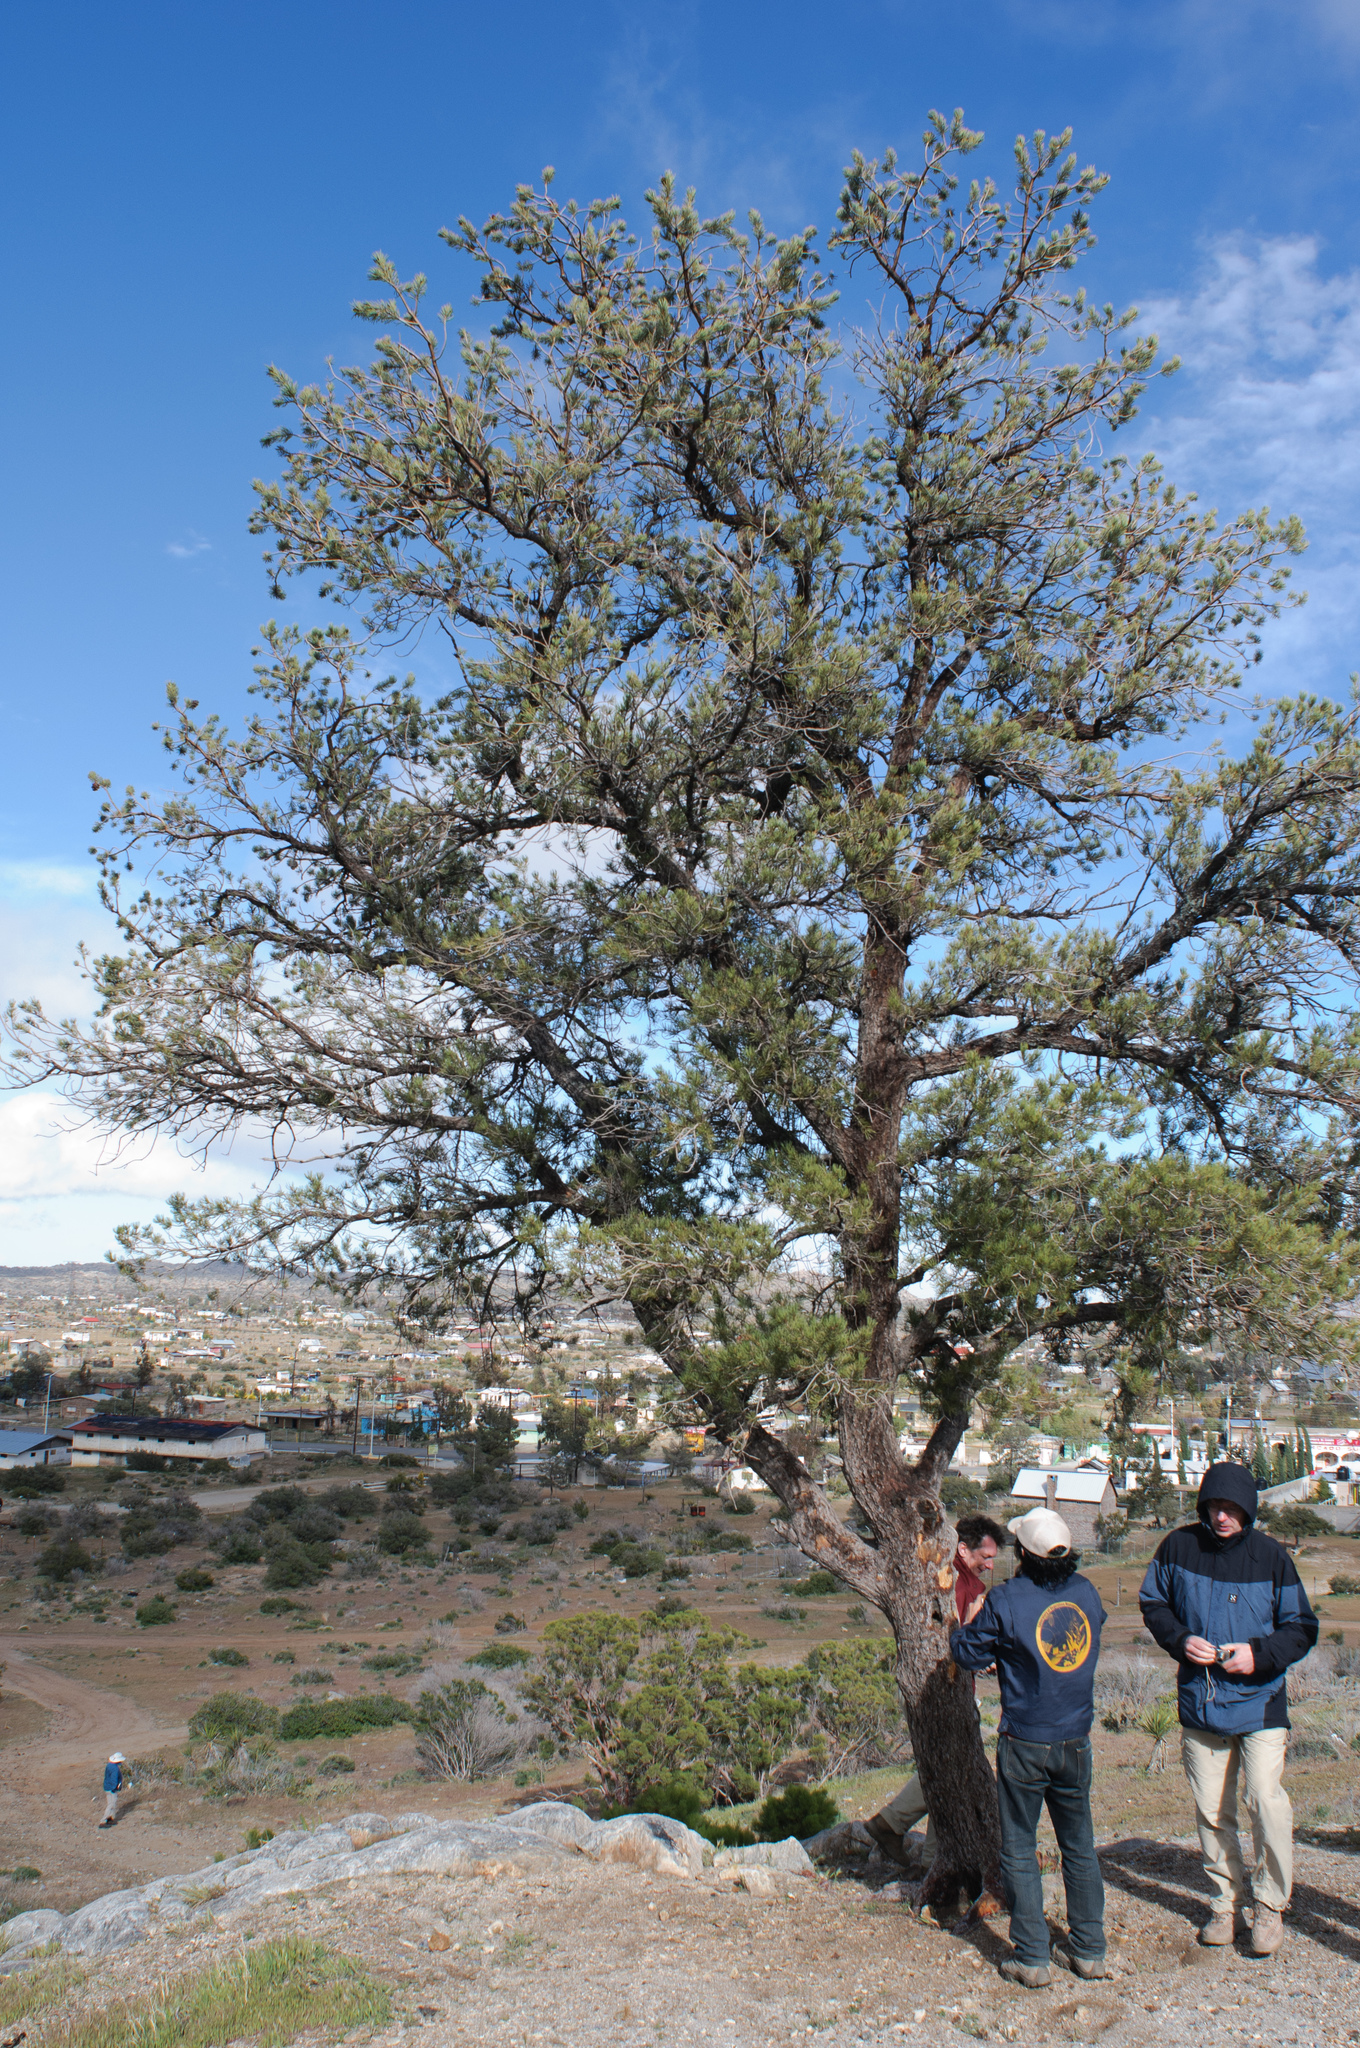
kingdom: Plantae
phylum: Tracheophyta
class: Pinopsida
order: Pinales
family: Pinaceae
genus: Pinus
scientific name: Pinus monophylla
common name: One-leaved nut pine
